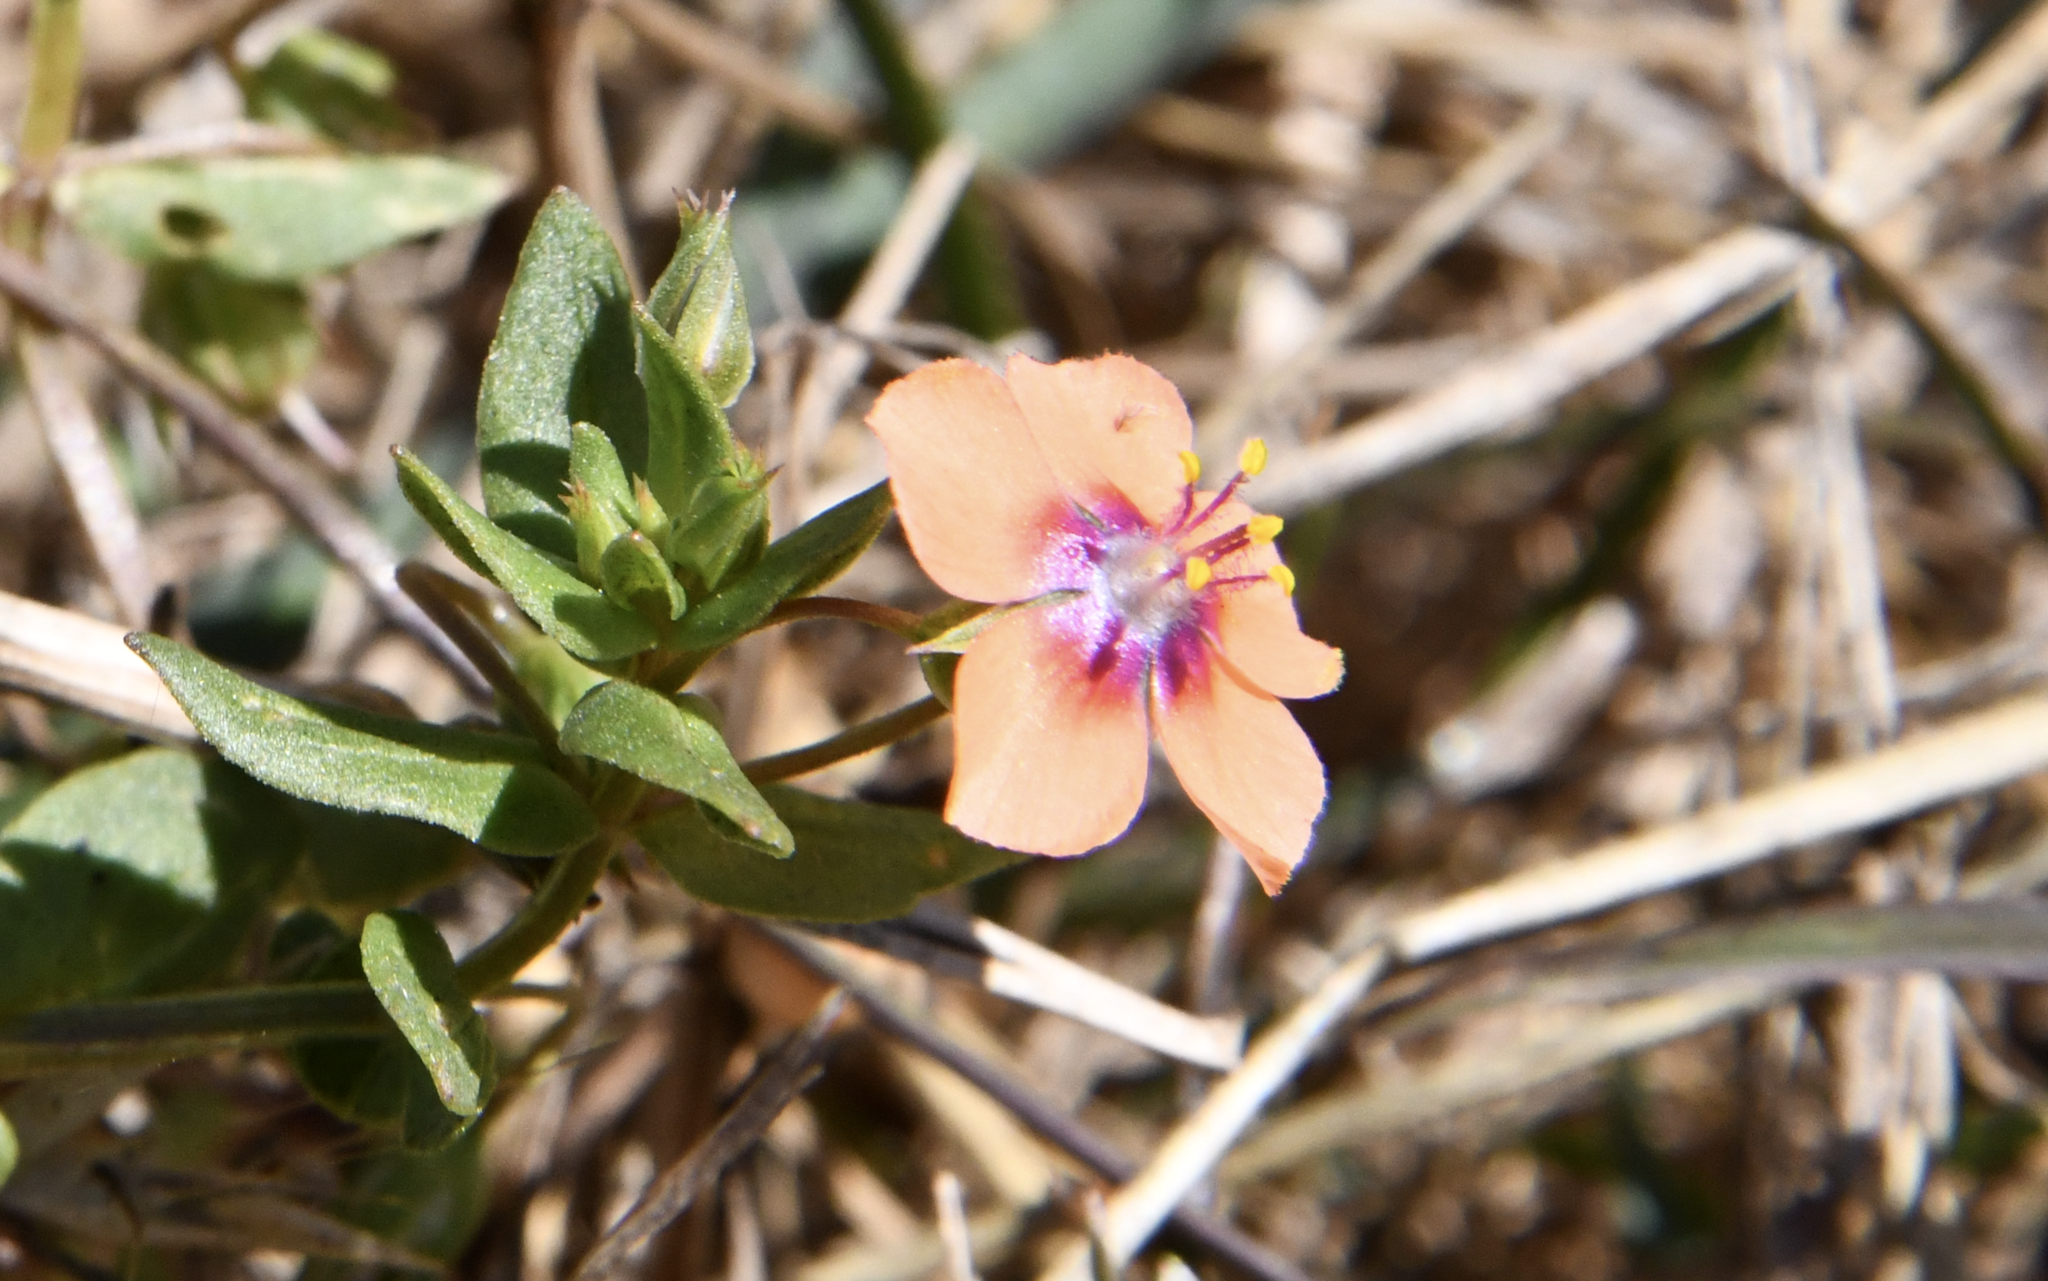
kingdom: Plantae
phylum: Tracheophyta
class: Magnoliopsida
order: Ericales
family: Primulaceae
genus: Lysimachia
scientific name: Lysimachia arvensis
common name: Scarlet pimpernel
